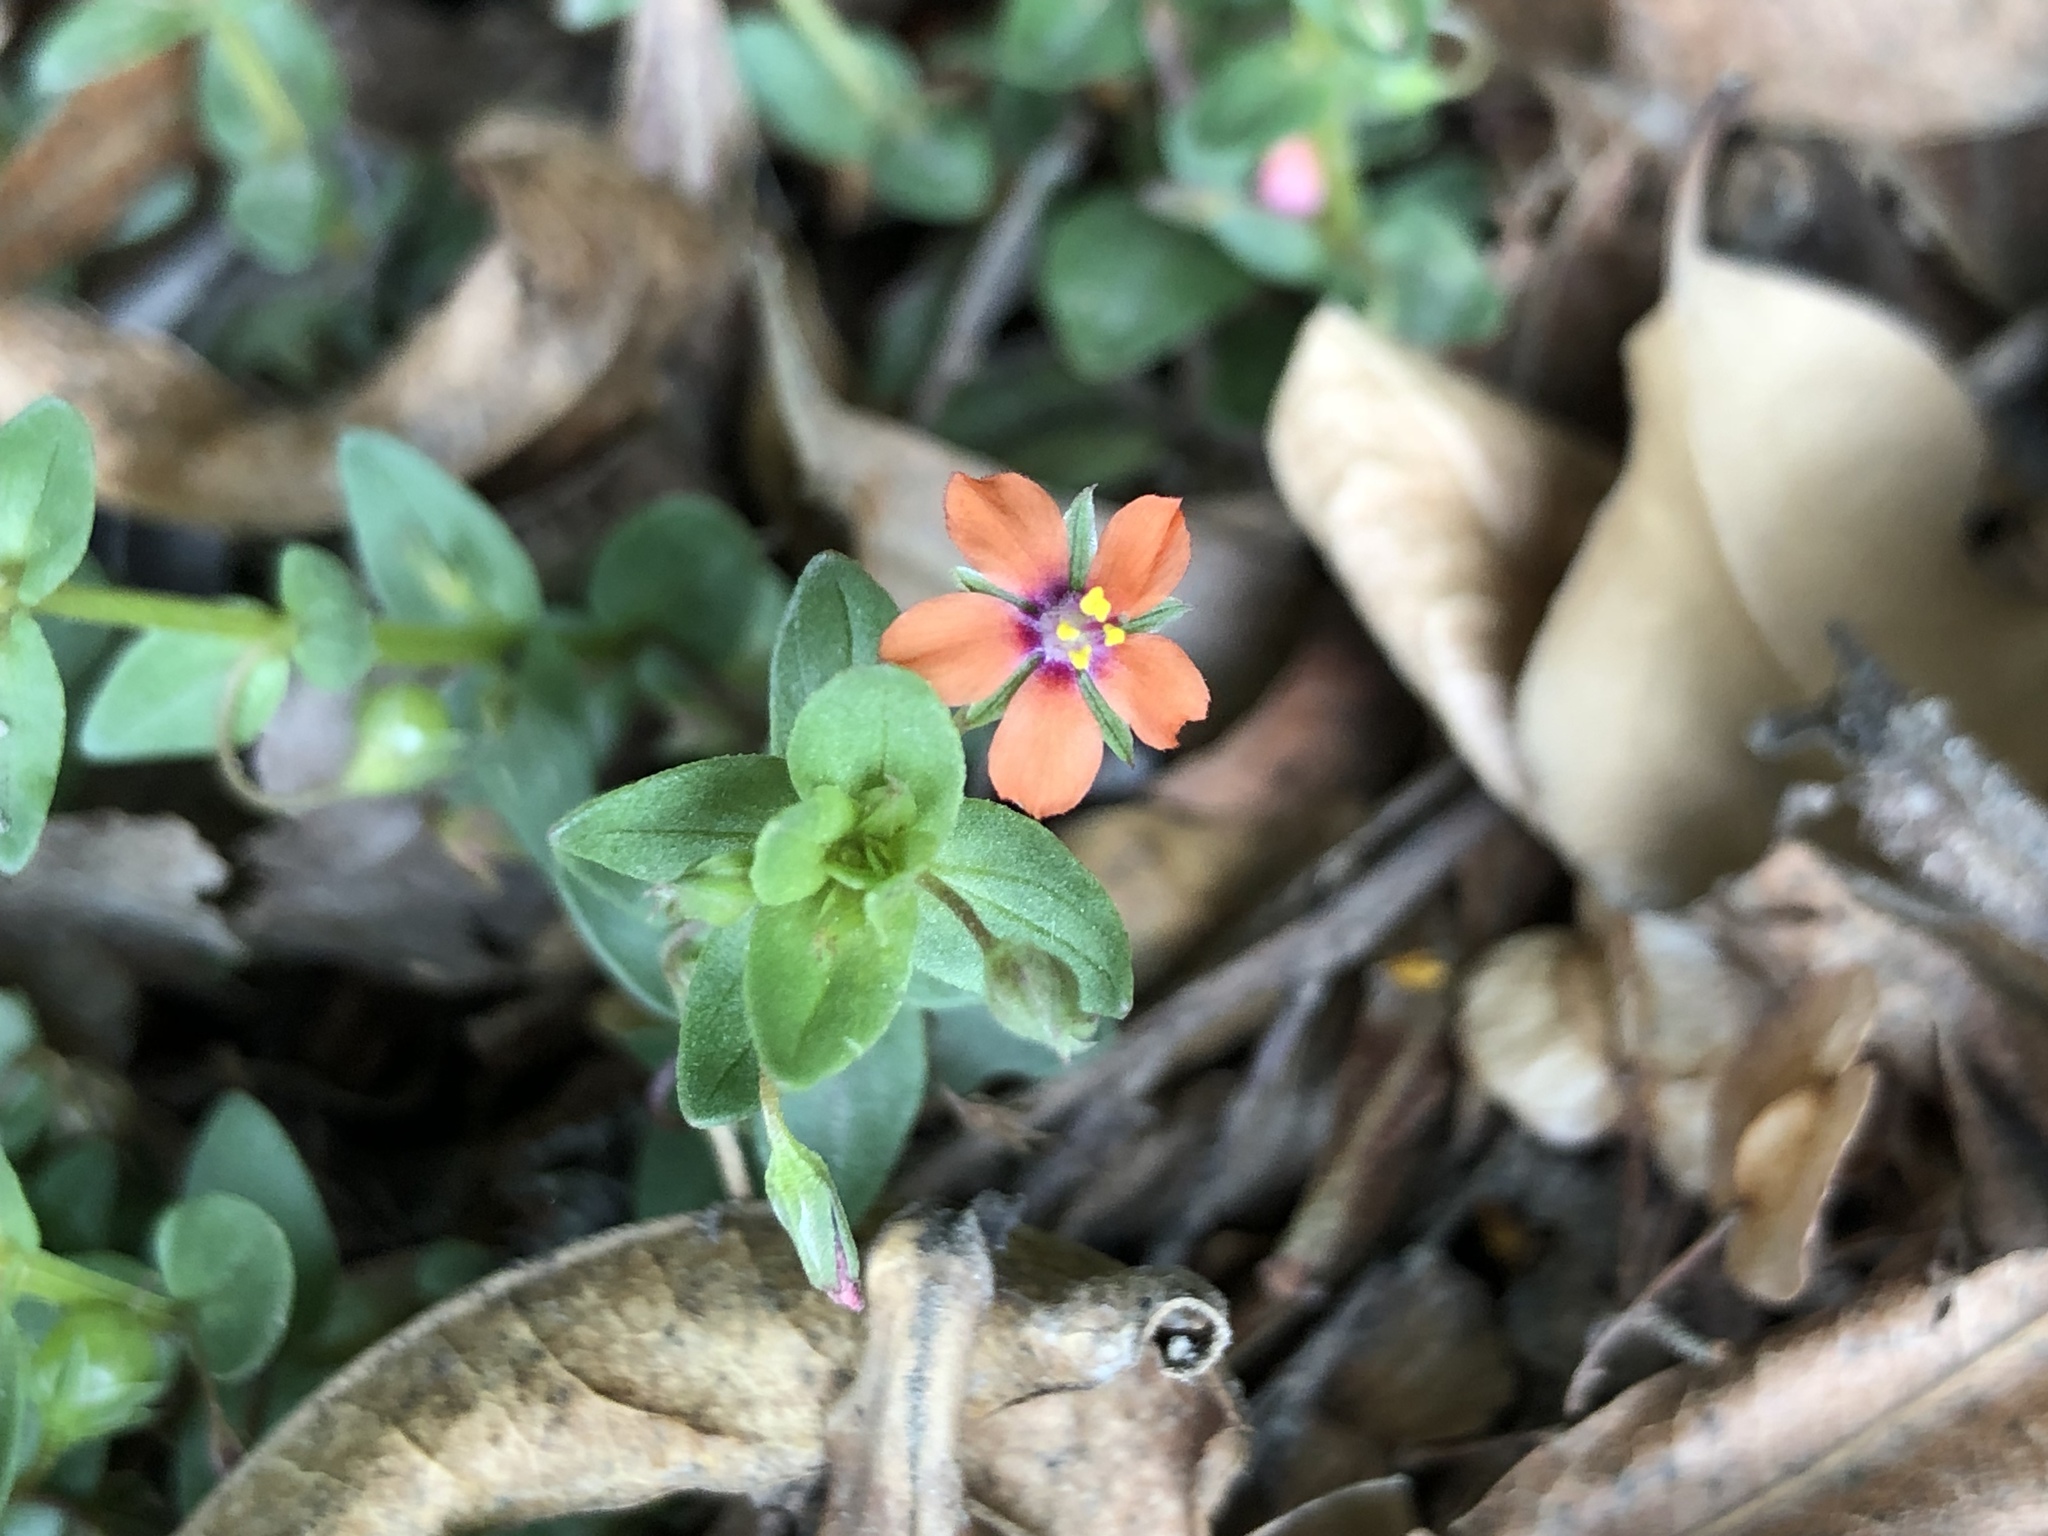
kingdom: Plantae
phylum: Tracheophyta
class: Magnoliopsida
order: Ericales
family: Primulaceae
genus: Lysimachia
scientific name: Lysimachia arvensis
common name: Scarlet pimpernel
